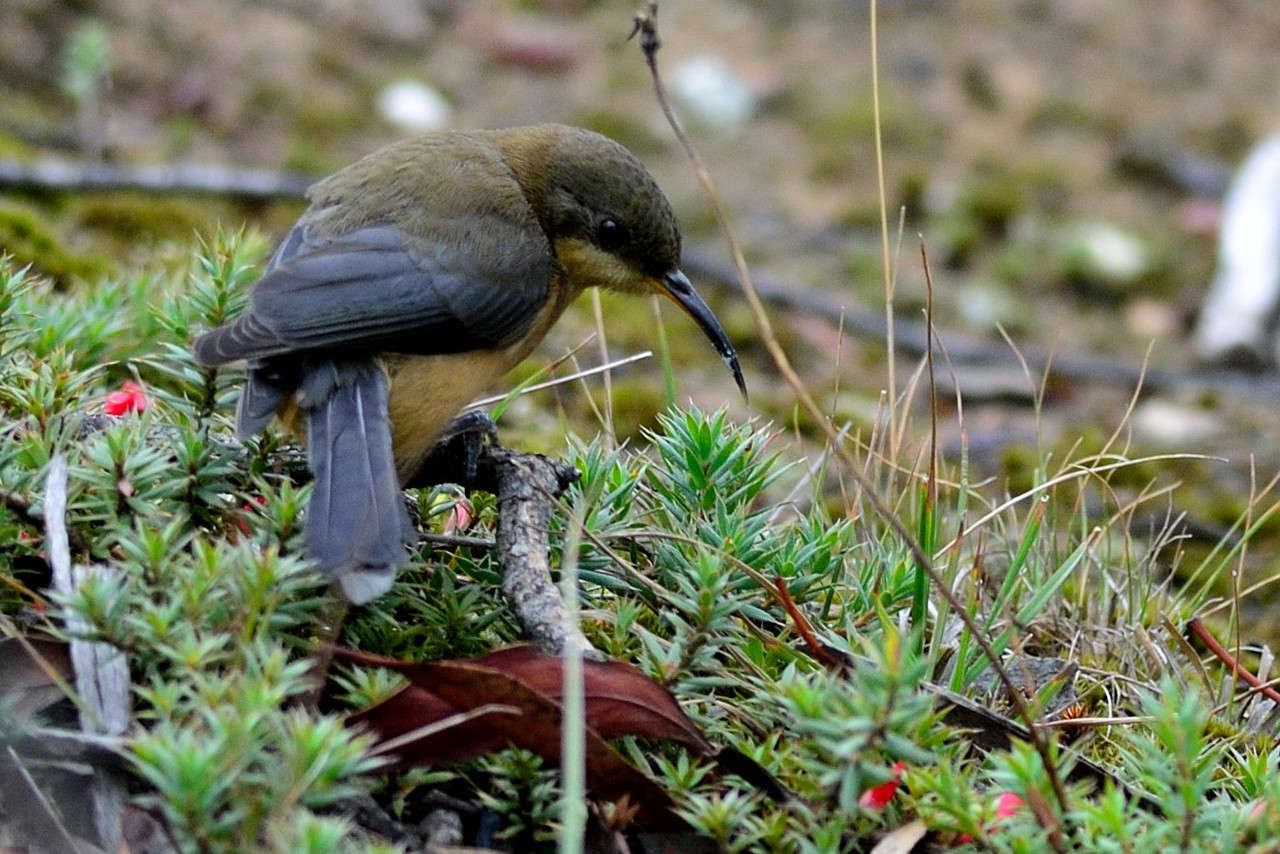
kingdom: Animalia
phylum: Chordata
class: Aves
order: Passeriformes
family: Meliphagidae
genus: Acanthorhynchus
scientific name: Acanthorhynchus tenuirostris
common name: Eastern spinebill
